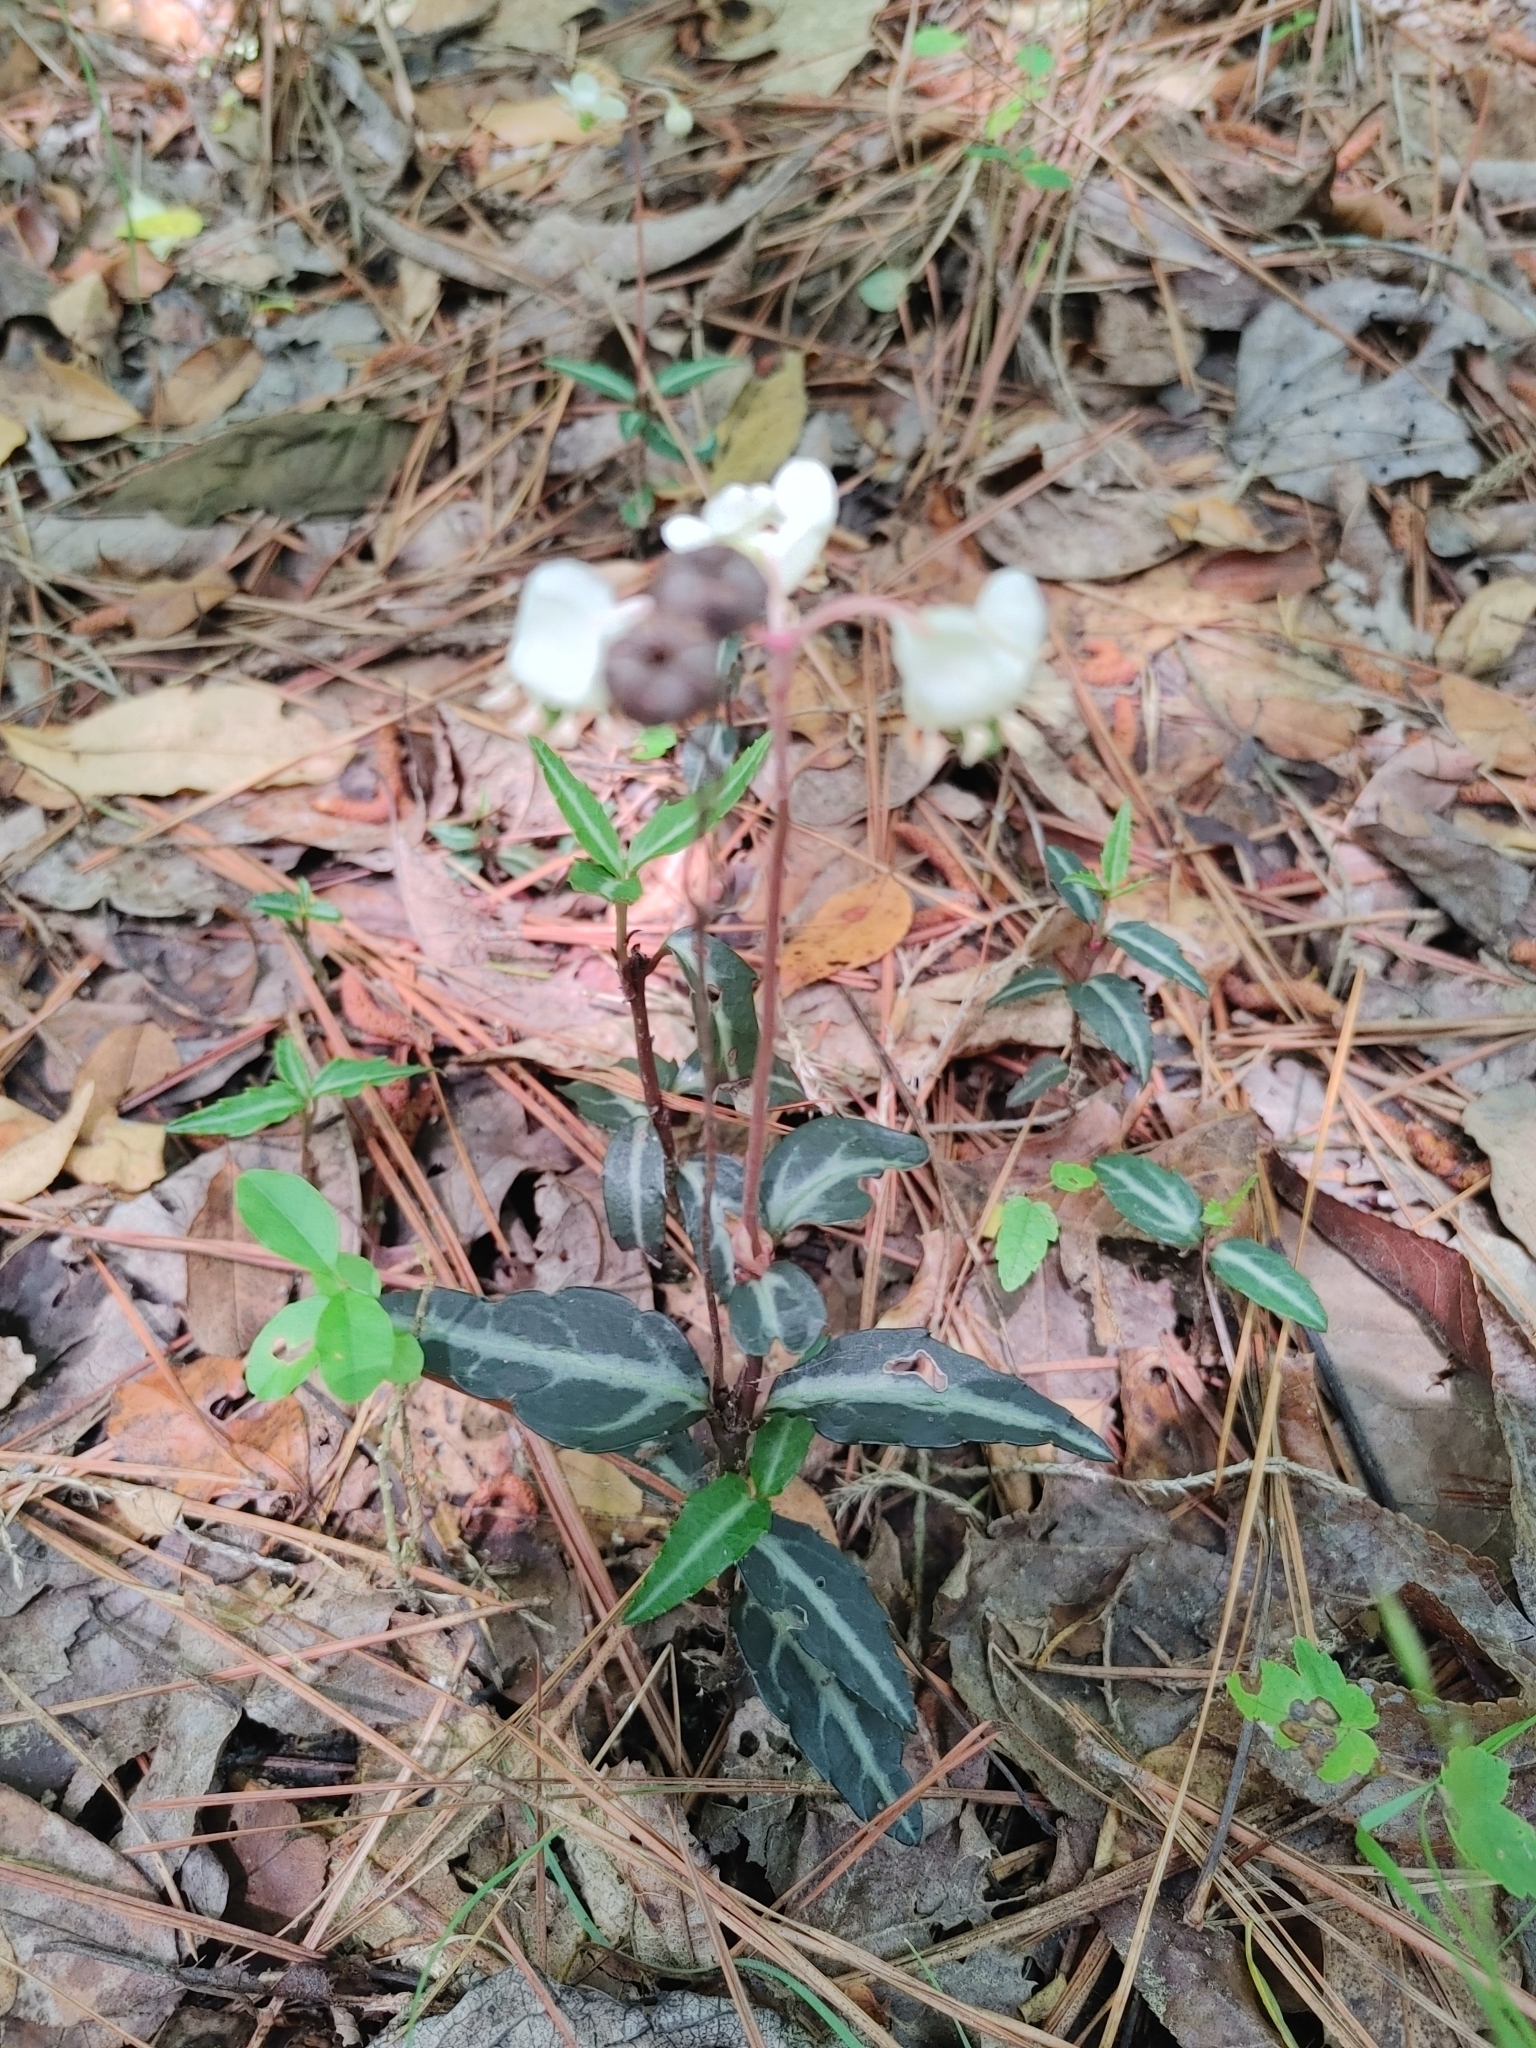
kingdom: Plantae
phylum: Tracheophyta
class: Magnoliopsida
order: Ericales
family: Ericaceae
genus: Chimaphila
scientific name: Chimaphila maculata
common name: Spotted pipsissewa
